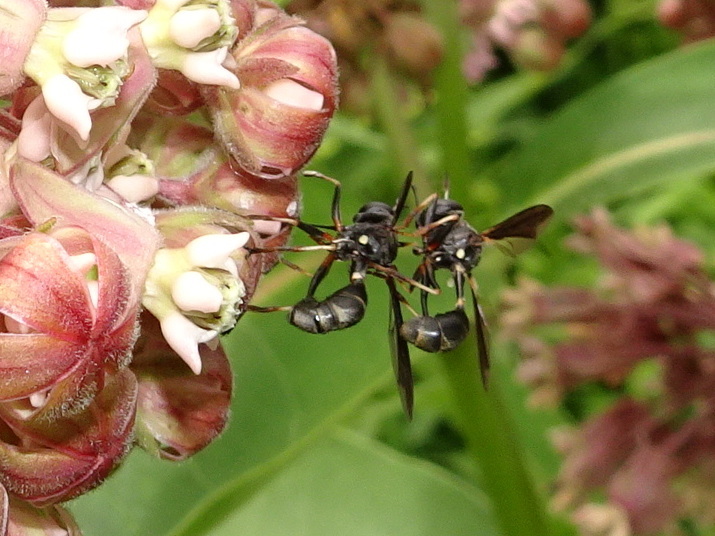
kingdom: Animalia
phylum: Arthropoda
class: Insecta
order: Diptera
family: Conopidae
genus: Physocephala
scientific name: Physocephala tibialis
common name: Common eastern physocephala
